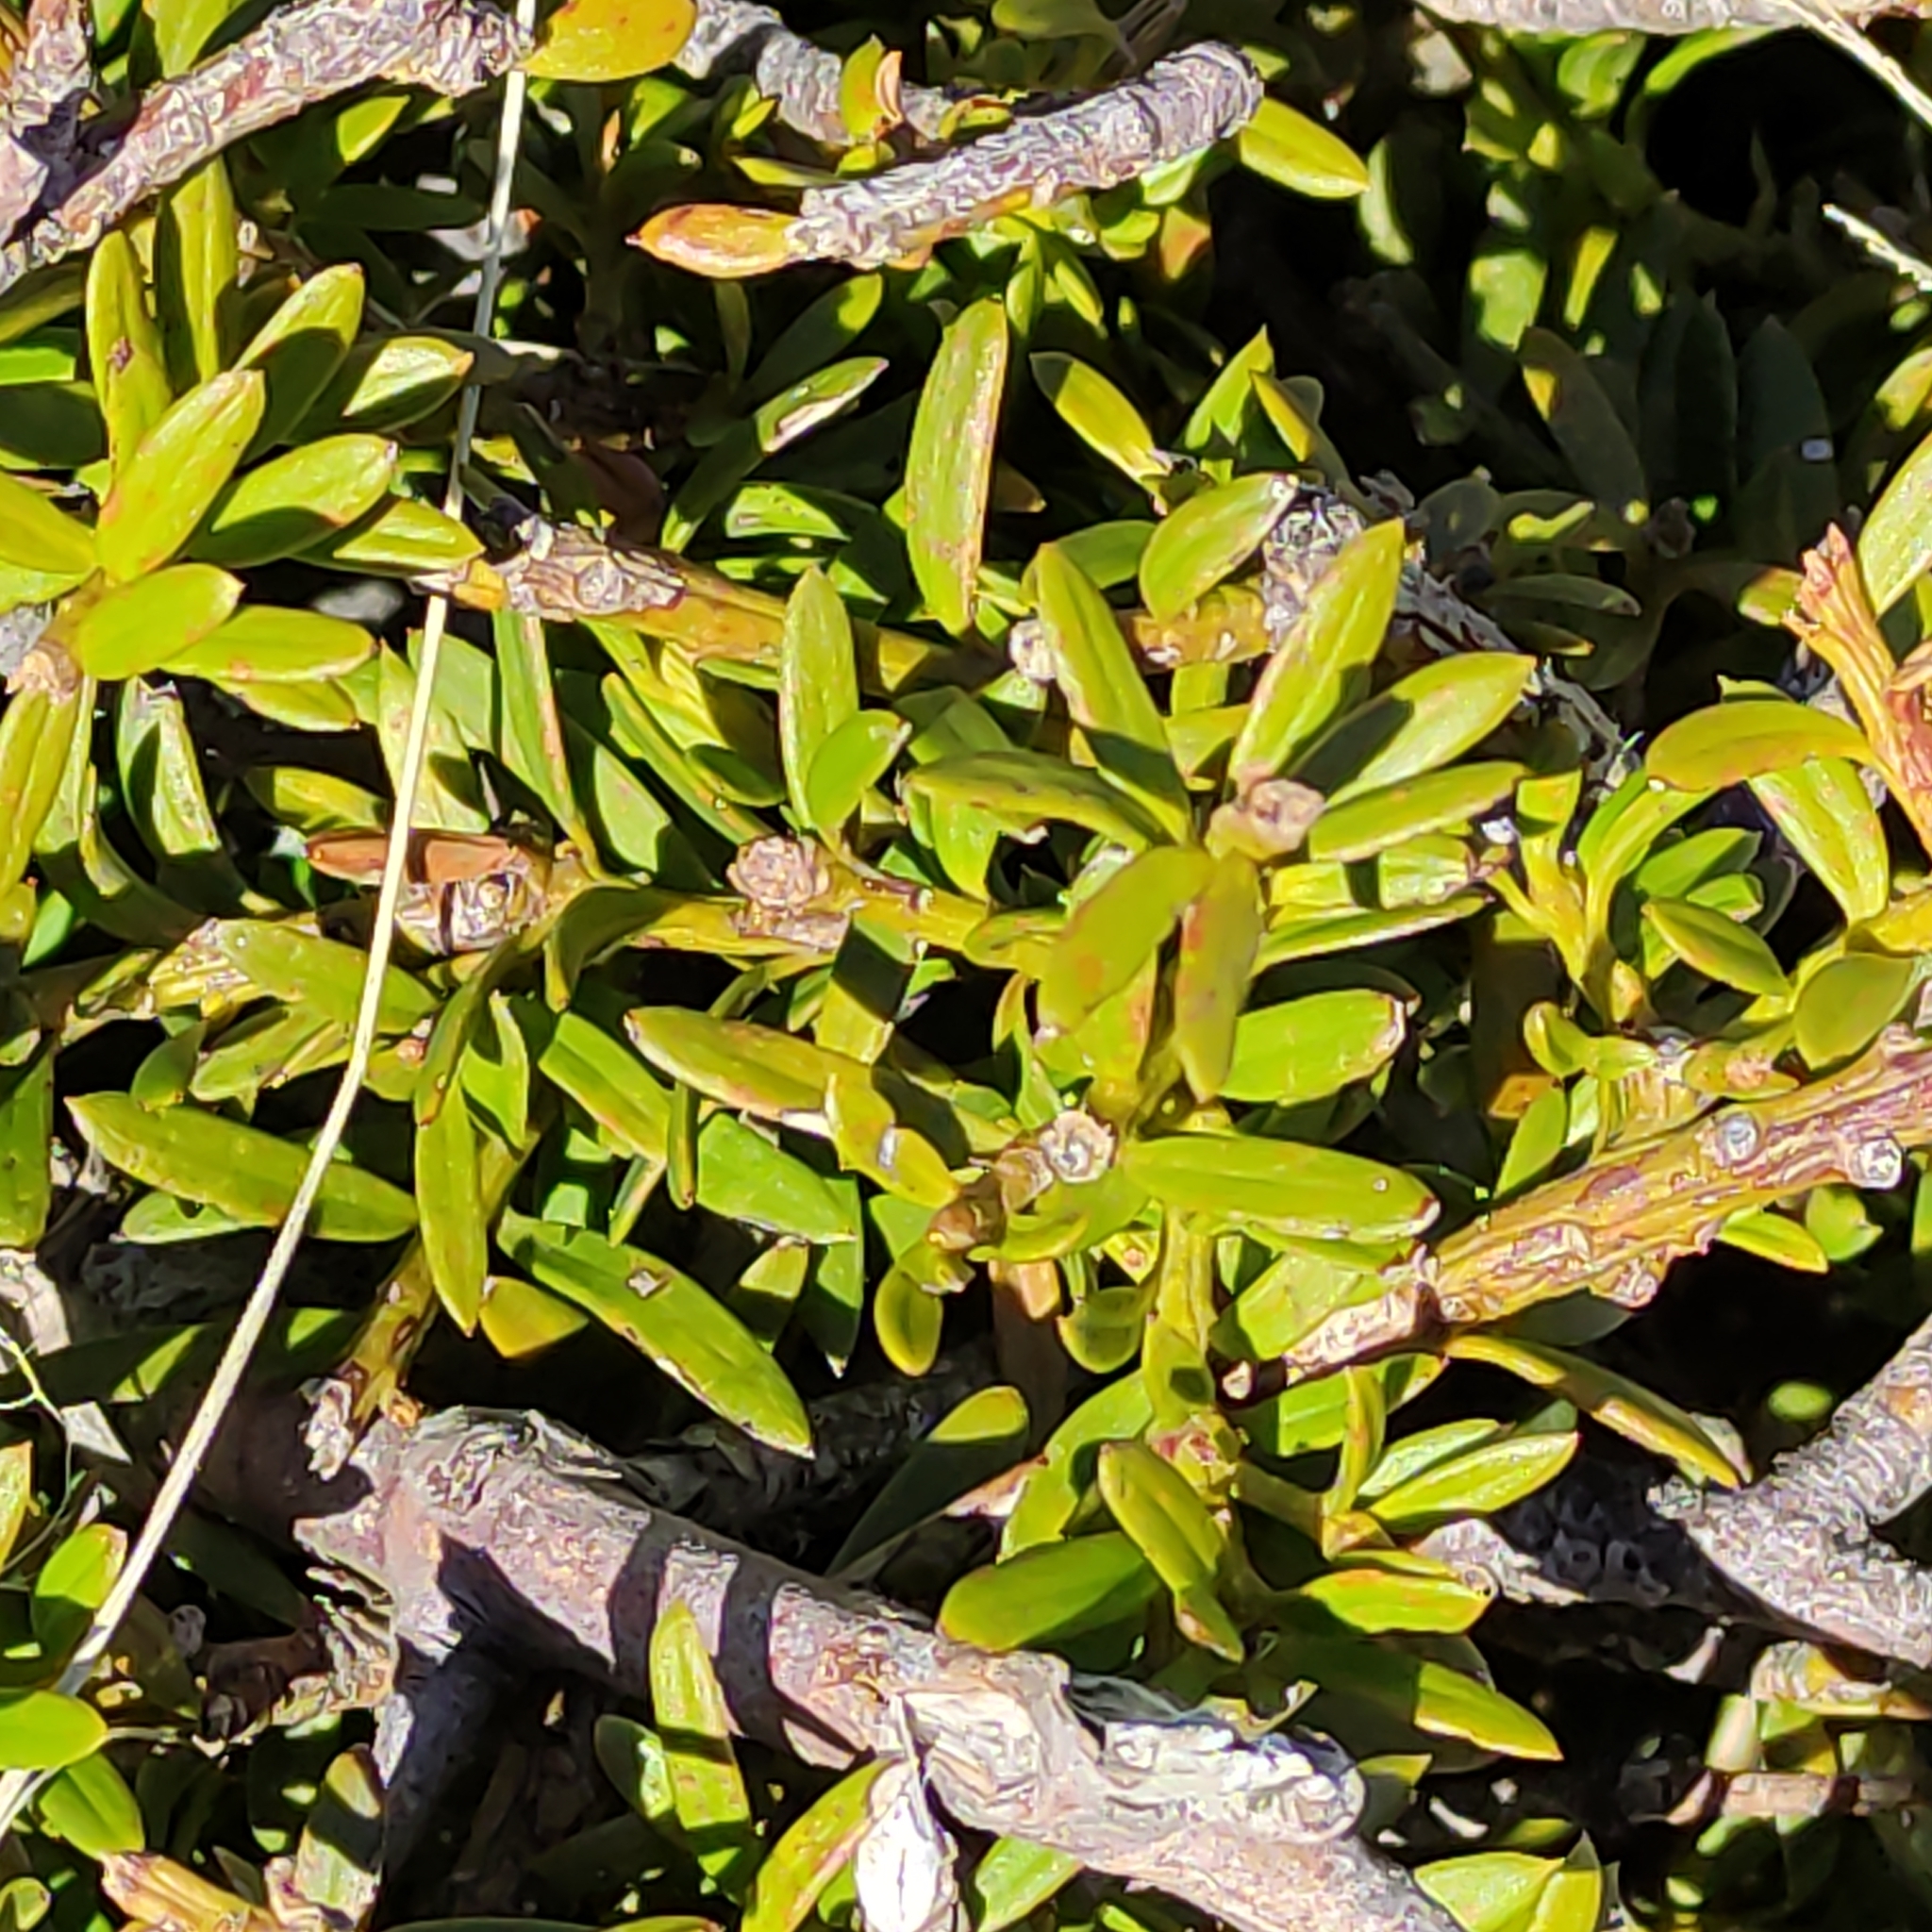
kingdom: Plantae
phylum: Tracheophyta
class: Pinopsida
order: Pinales
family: Podocarpaceae
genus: Podocarpus
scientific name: Podocarpus
